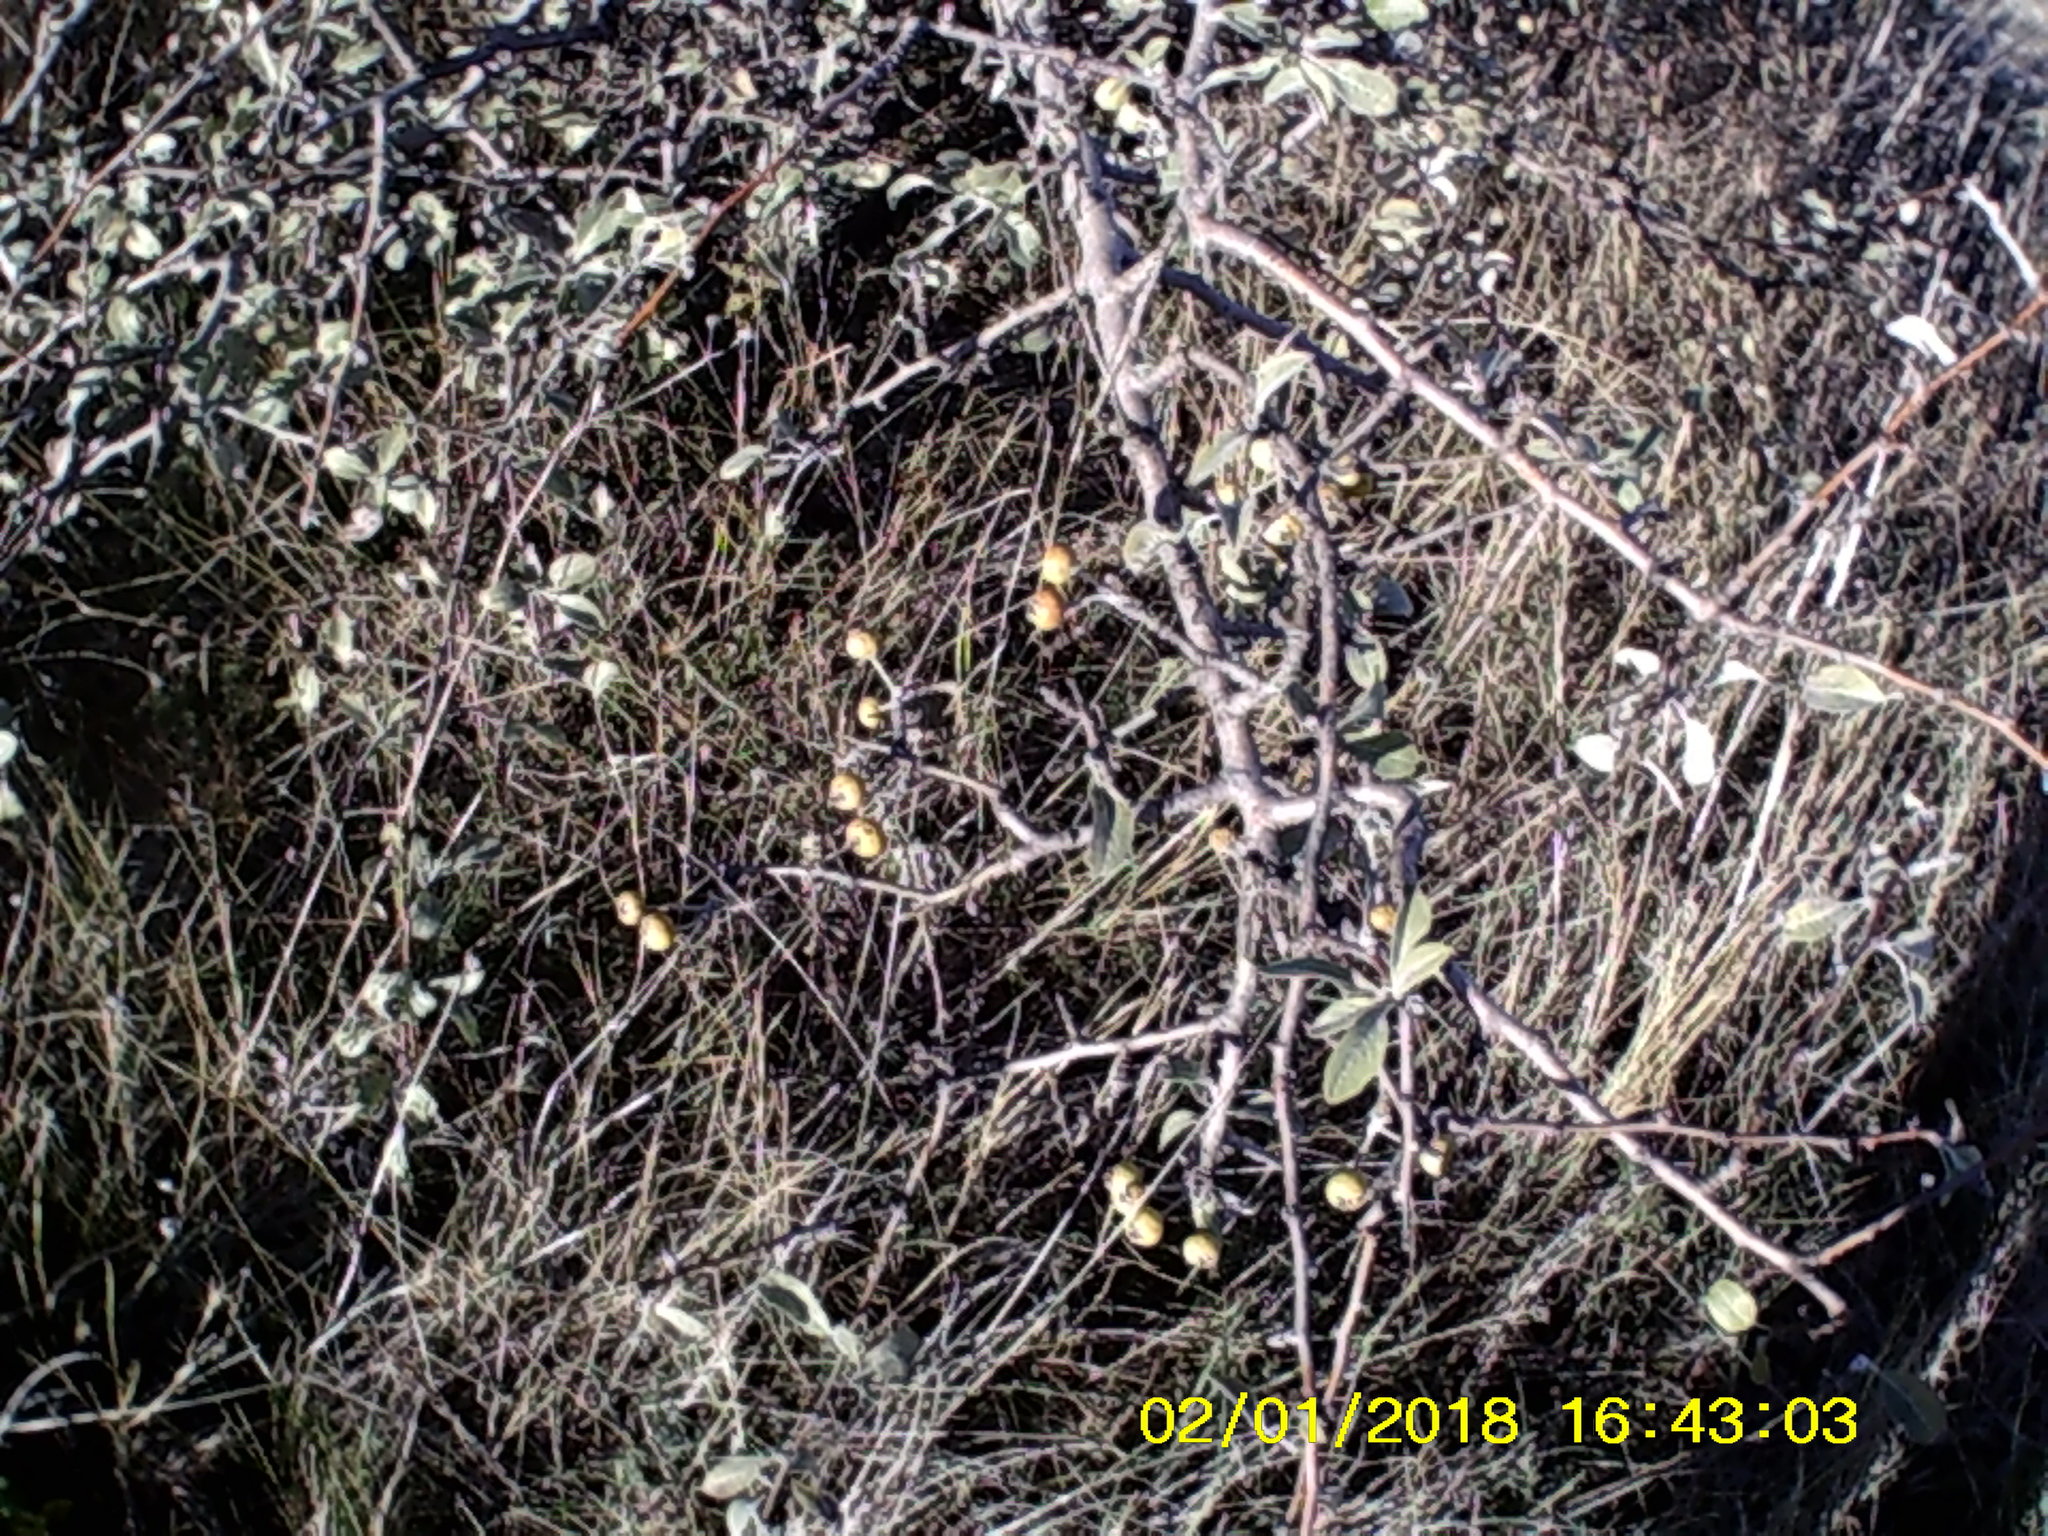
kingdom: Plantae
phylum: Tracheophyta
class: Magnoliopsida
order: Rosales
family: Rosaceae
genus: Pyrus
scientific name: Pyrus elaeagrifolia
